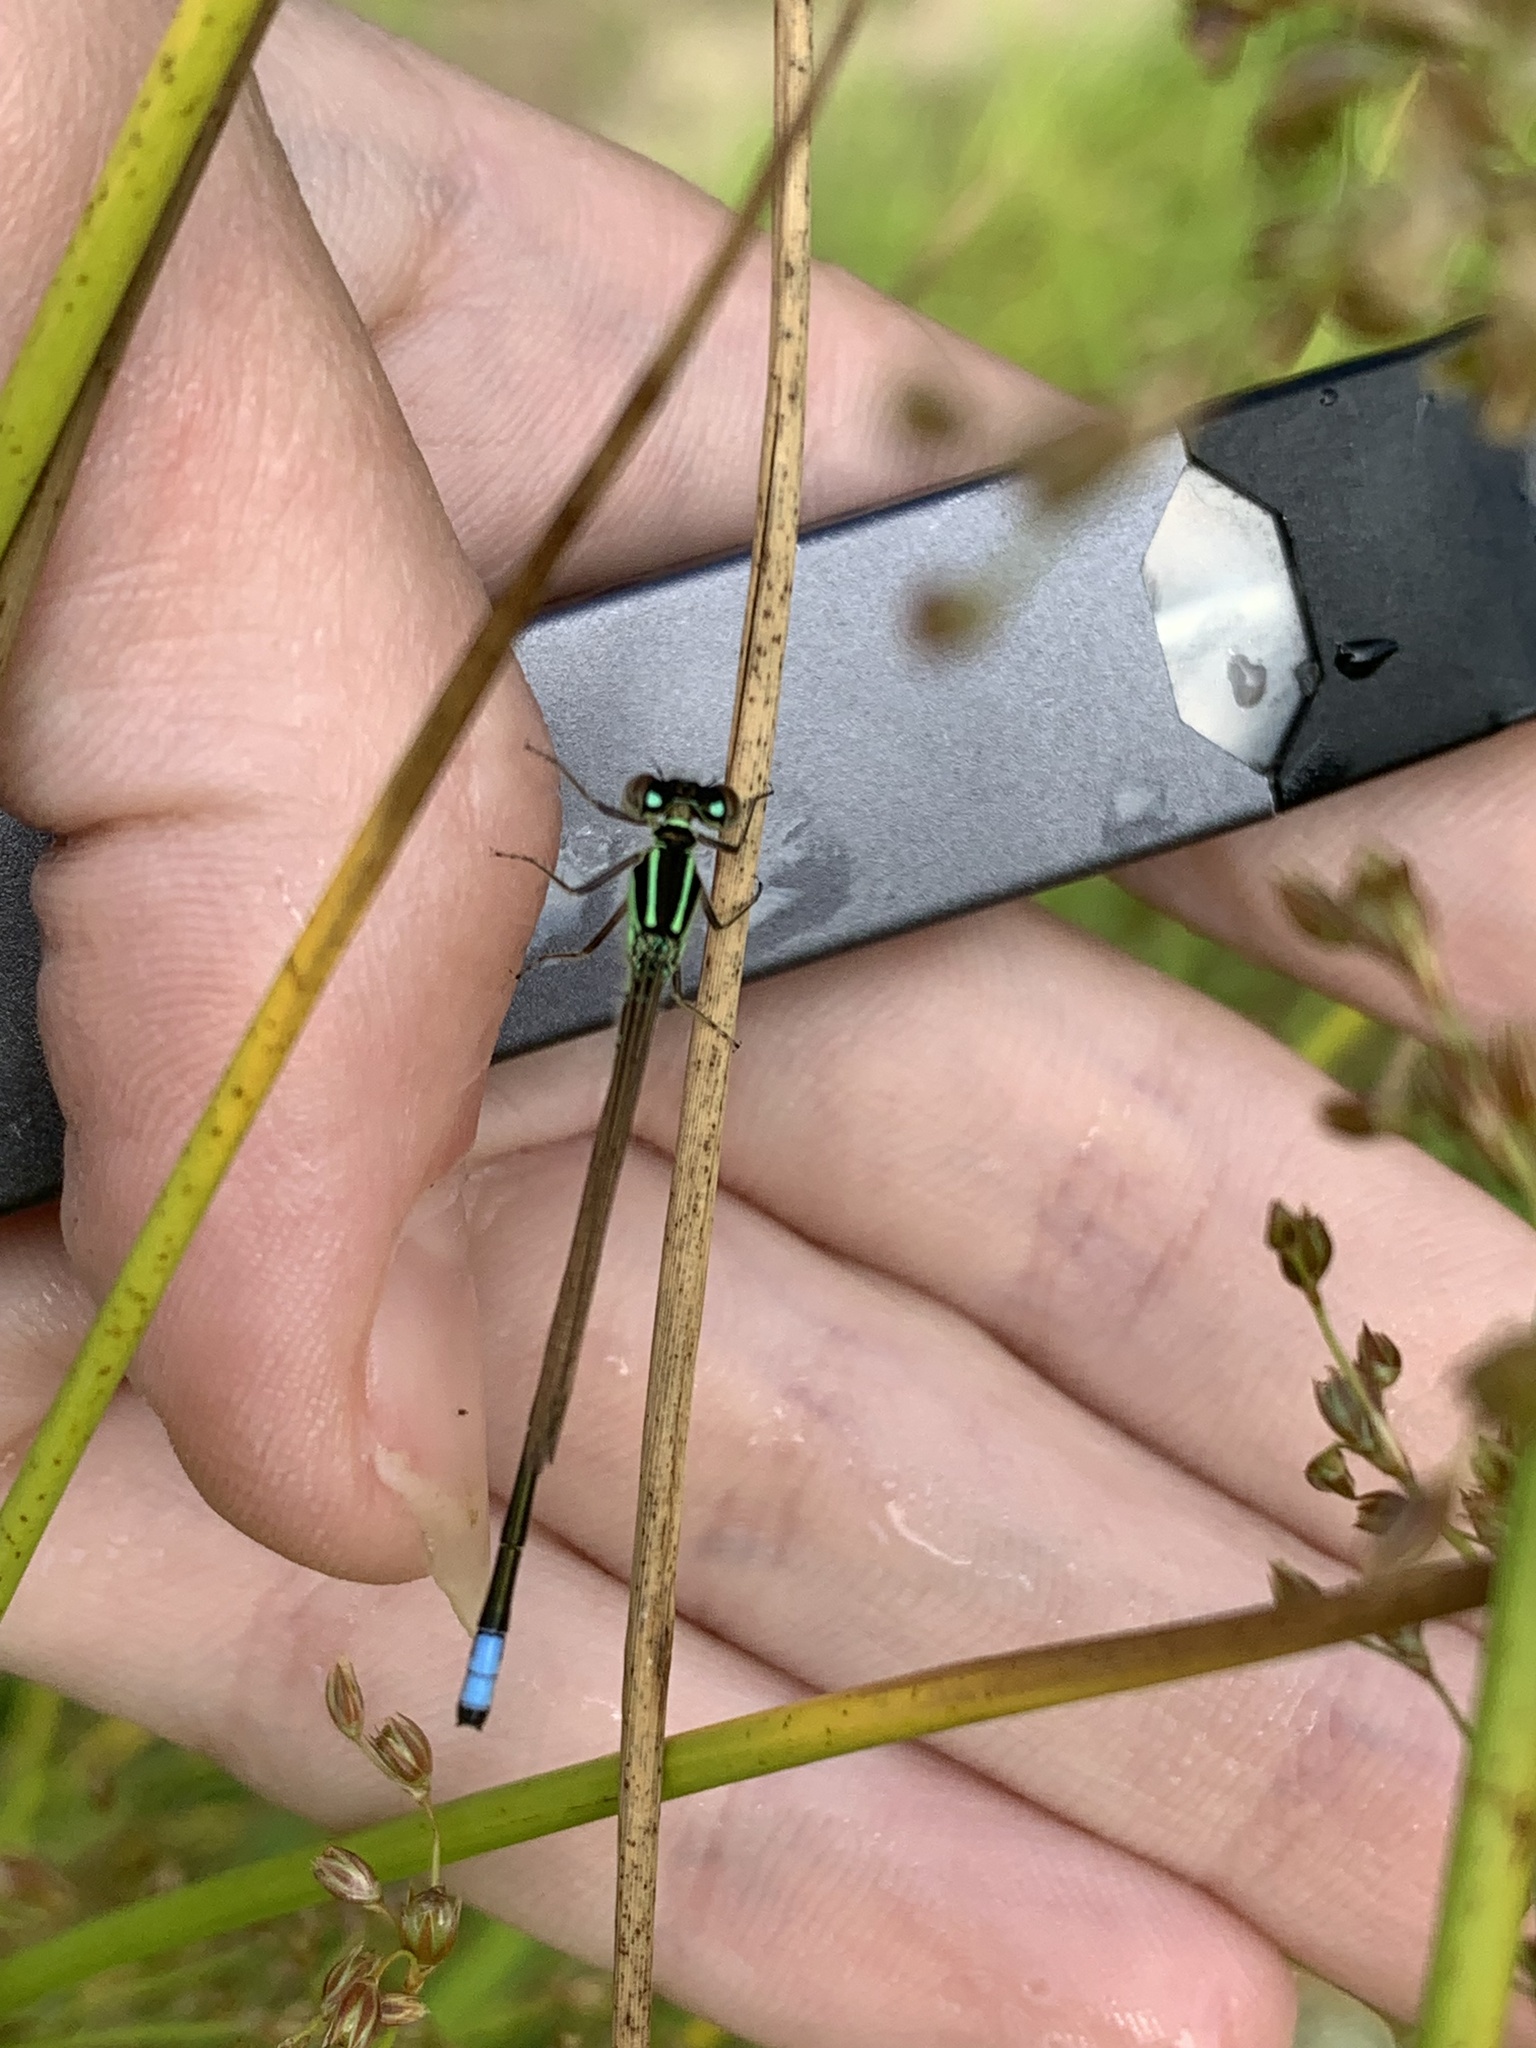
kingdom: Animalia
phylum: Arthropoda
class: Insecta
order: Odonata
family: Coenagrionidae
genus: Ischnura
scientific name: Ischnura verticalis
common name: Eastern forktail
